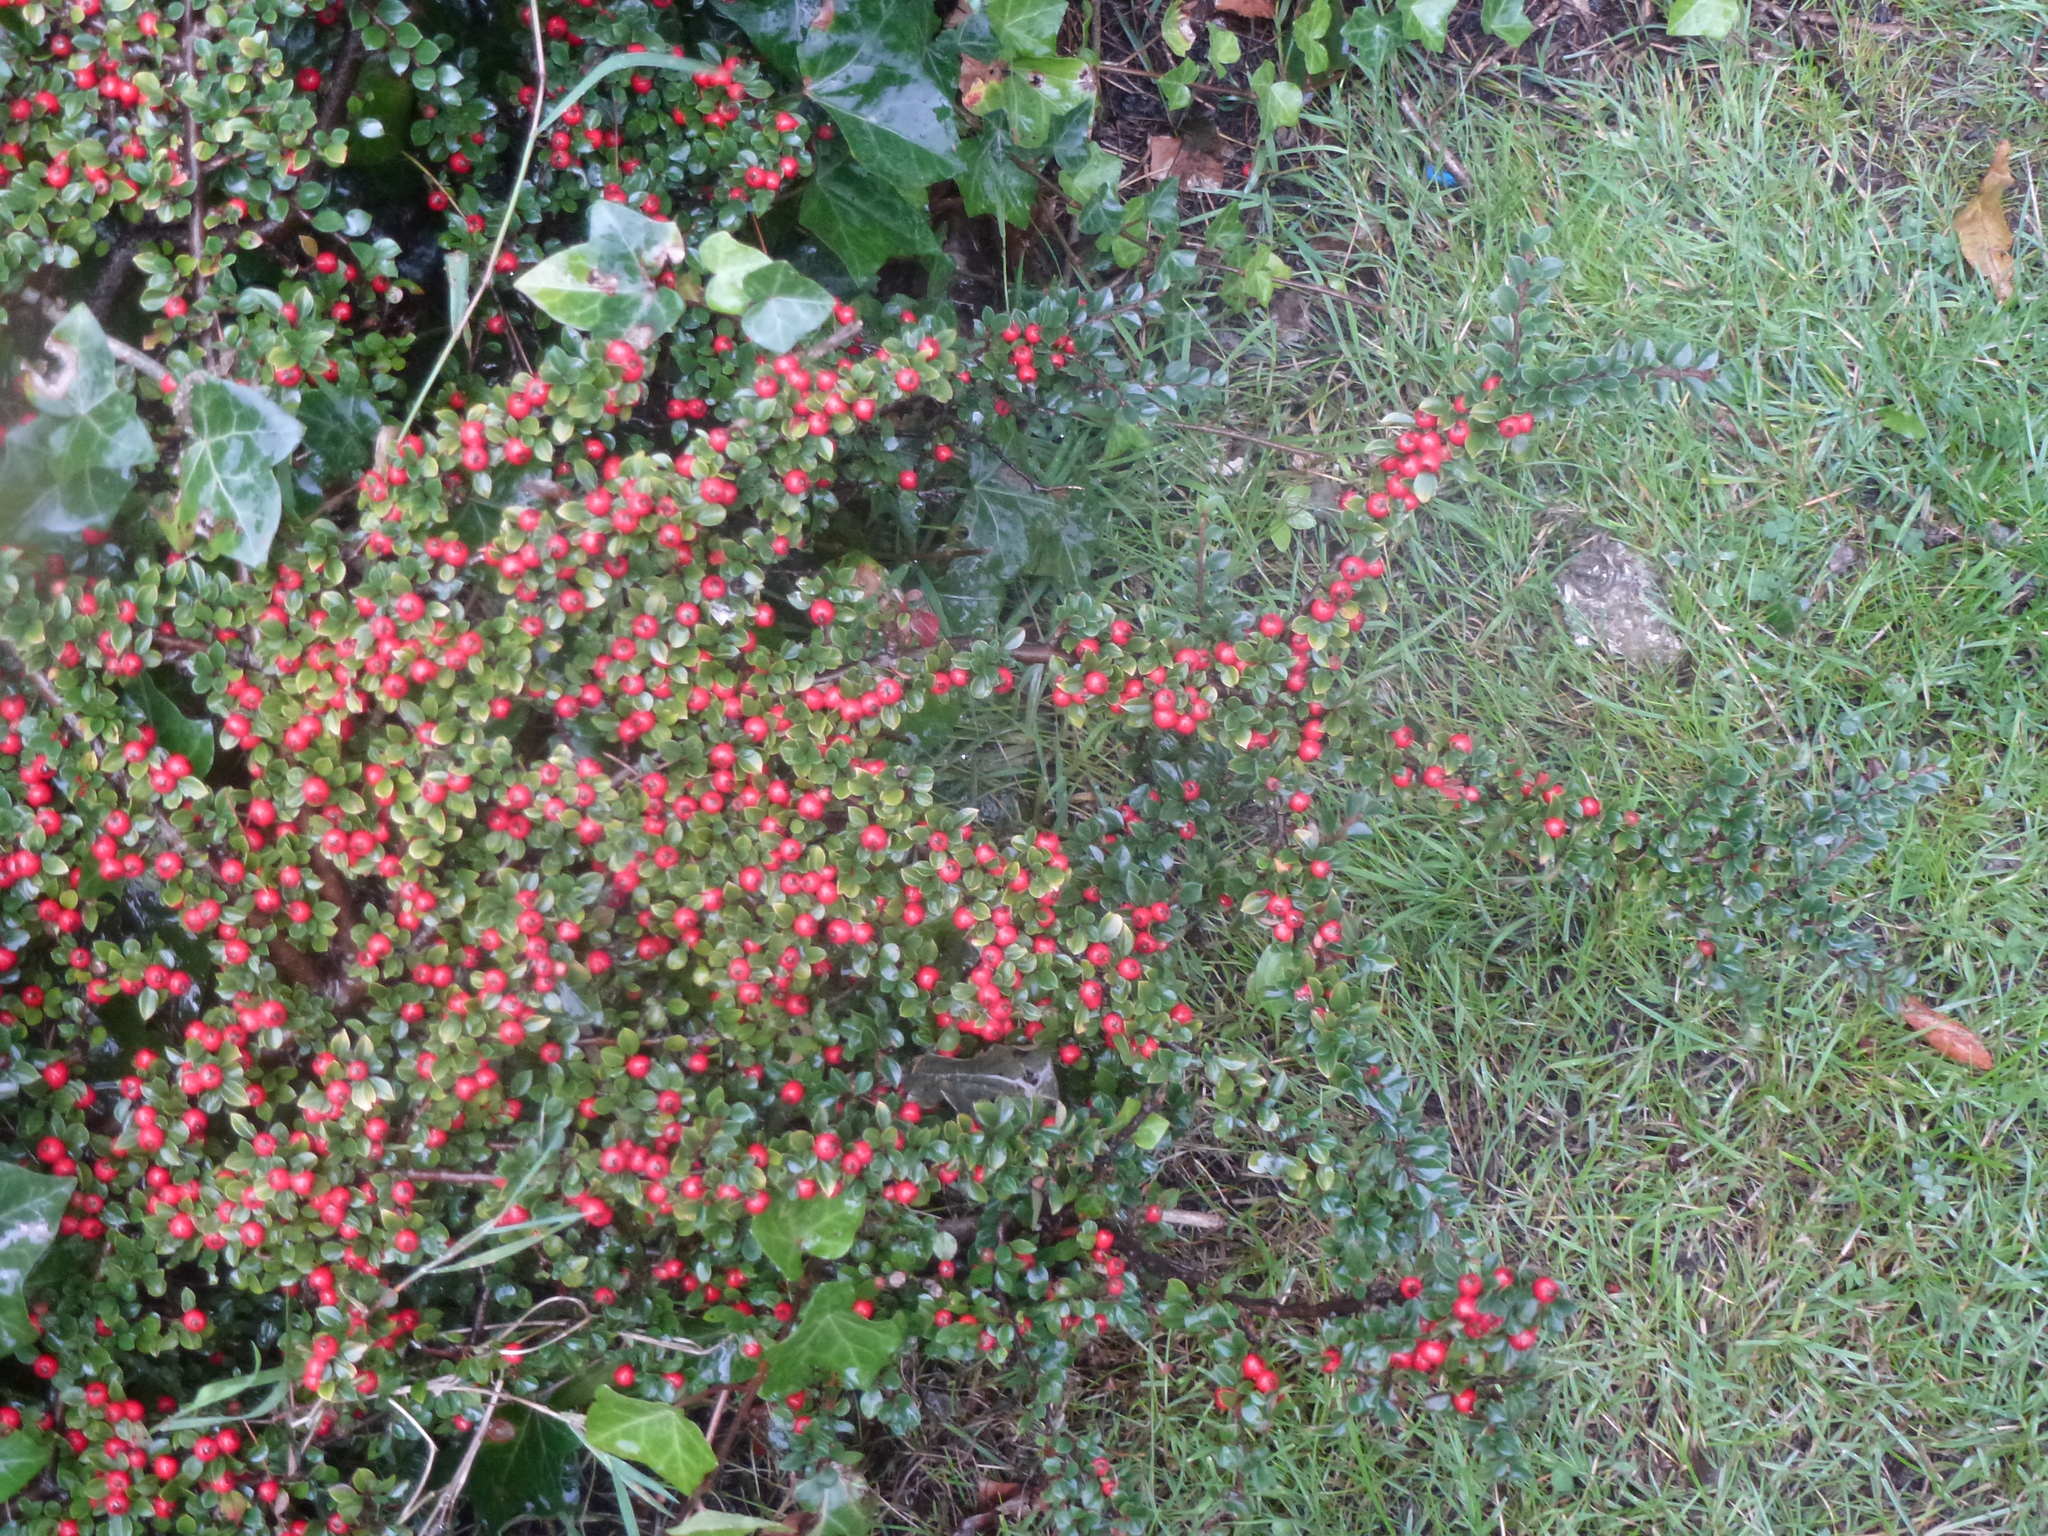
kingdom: Plantae
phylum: Tracheophyta
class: Magnoliopsida
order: Rosales
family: Rosaceae
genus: Cotoneaster
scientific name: Cotoneaster horizontalis
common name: Wall cotoneaster
